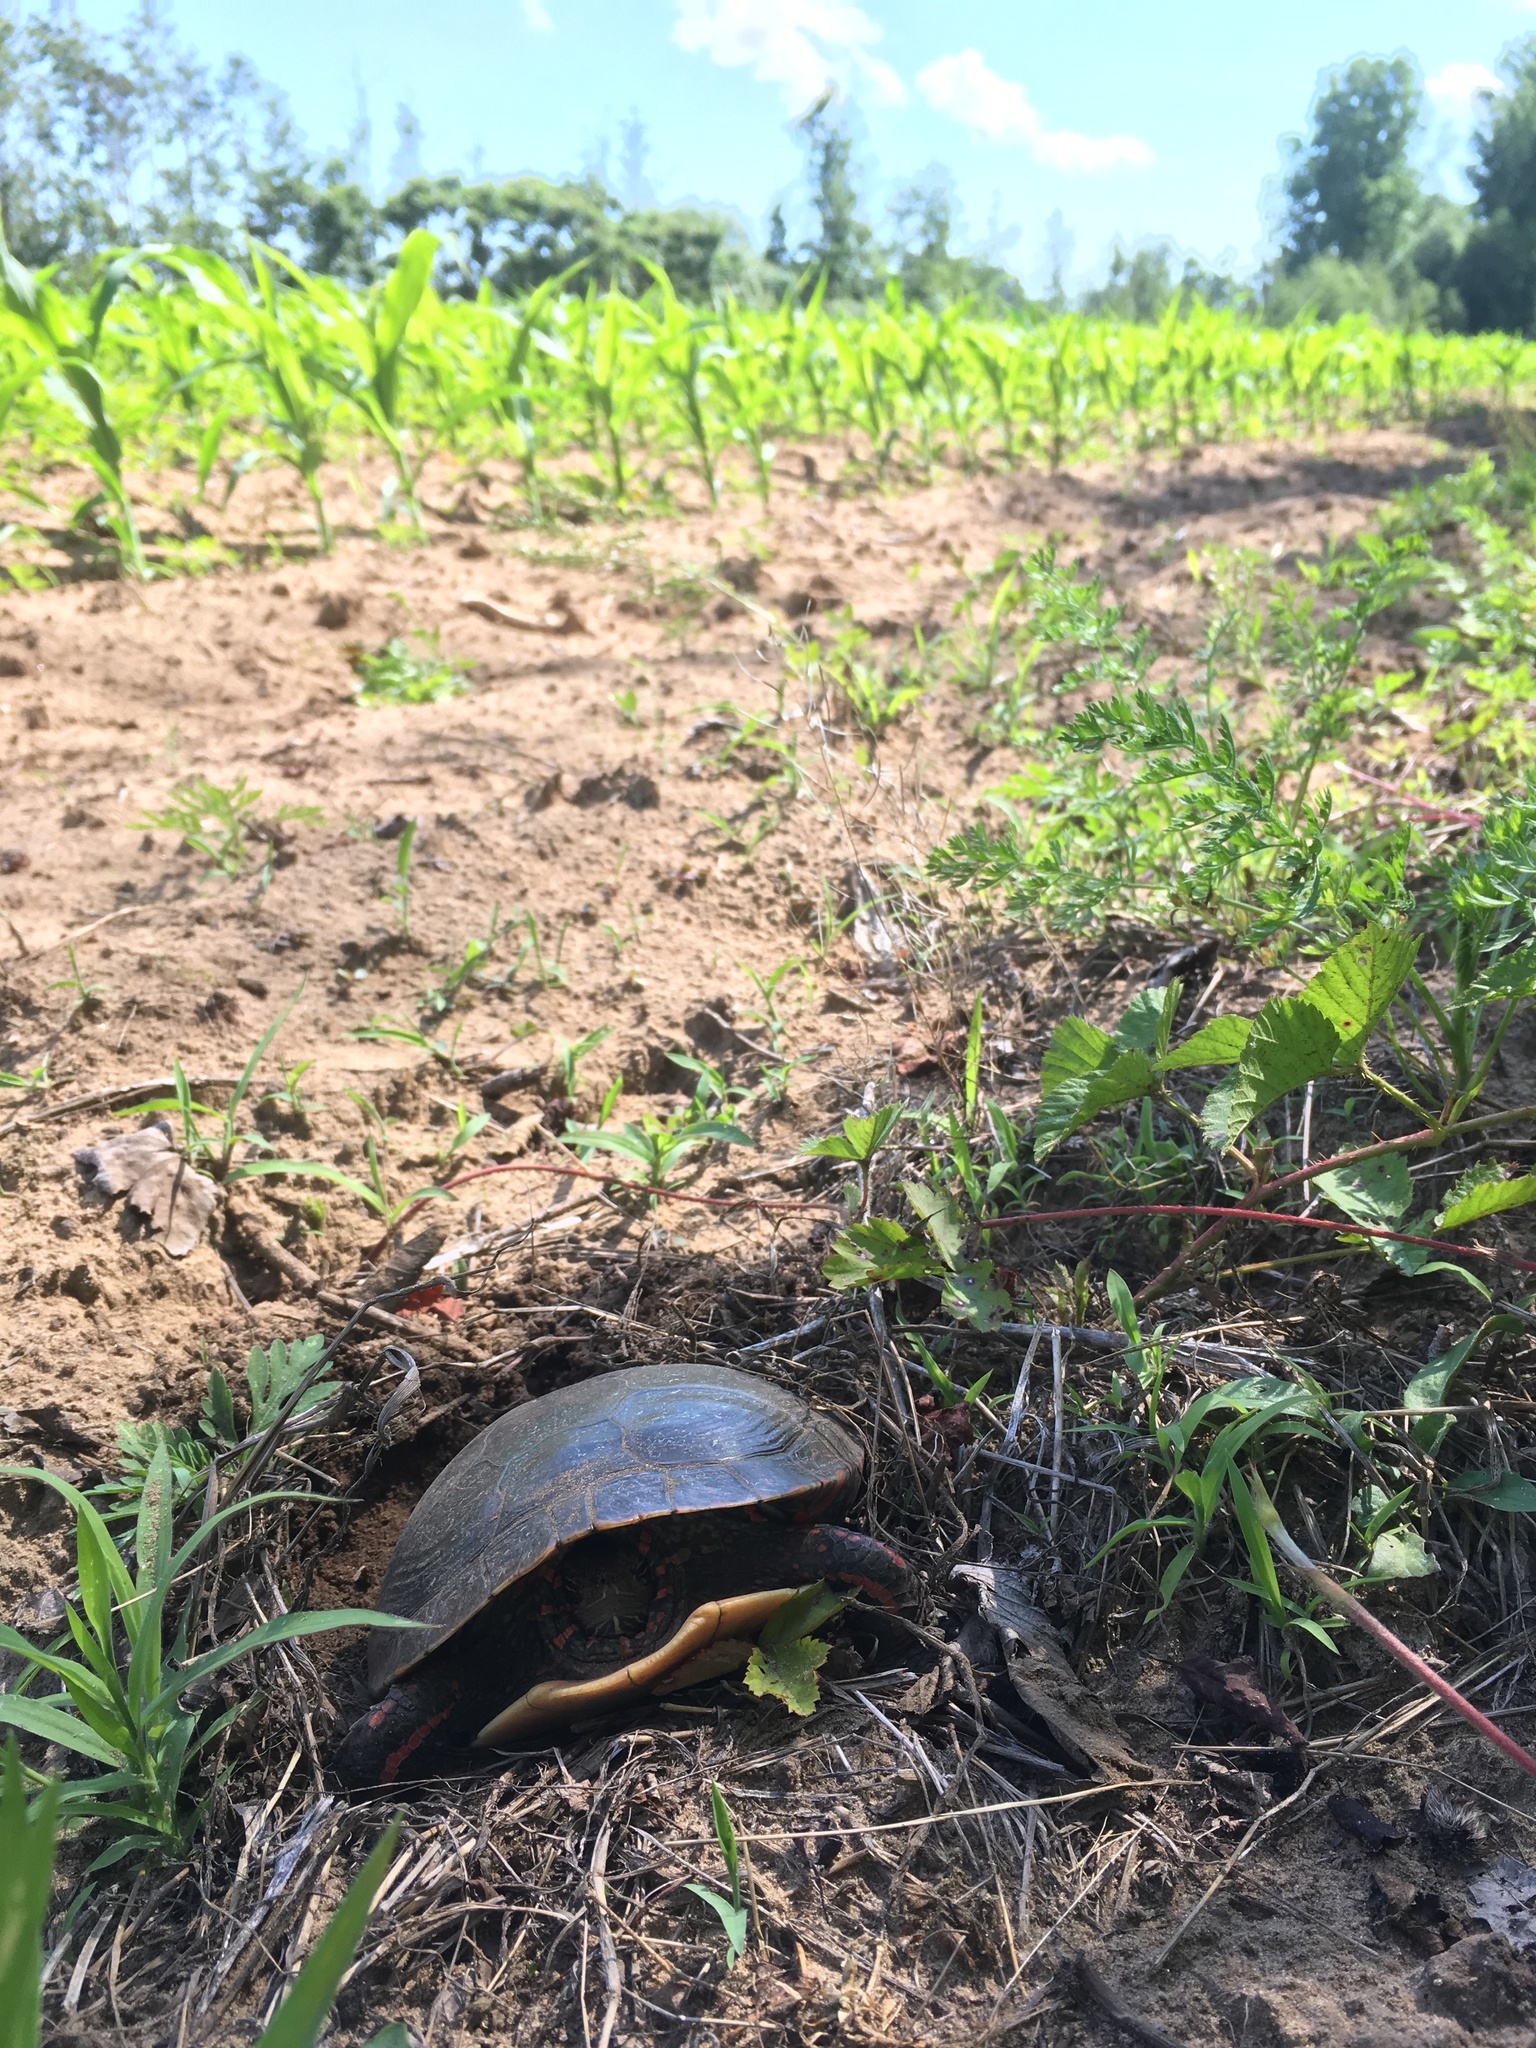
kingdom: Animalia
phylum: Chordata
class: Testudines
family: Emydidae
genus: Chrysemys
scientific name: Chrysemys picta
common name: Painted turtle
